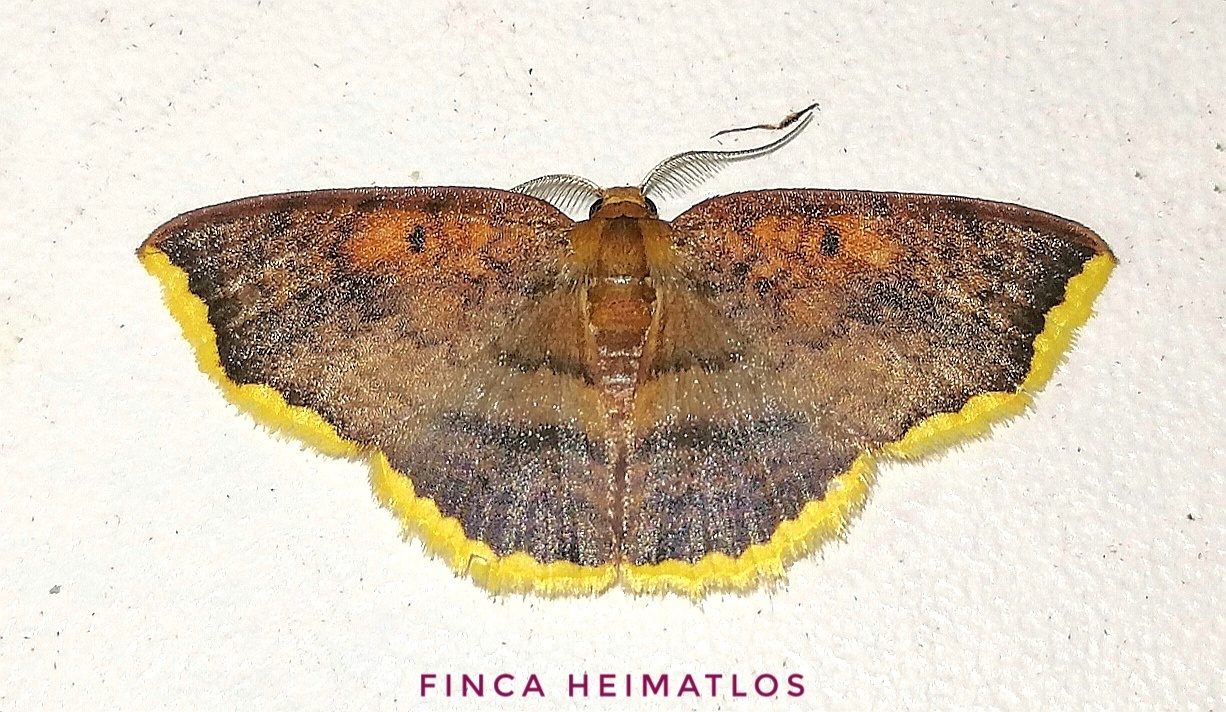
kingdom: Animalia
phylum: Arthropoda
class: Insecta
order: Lepidoptera
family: Geometridae
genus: Eois
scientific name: Eois catana
